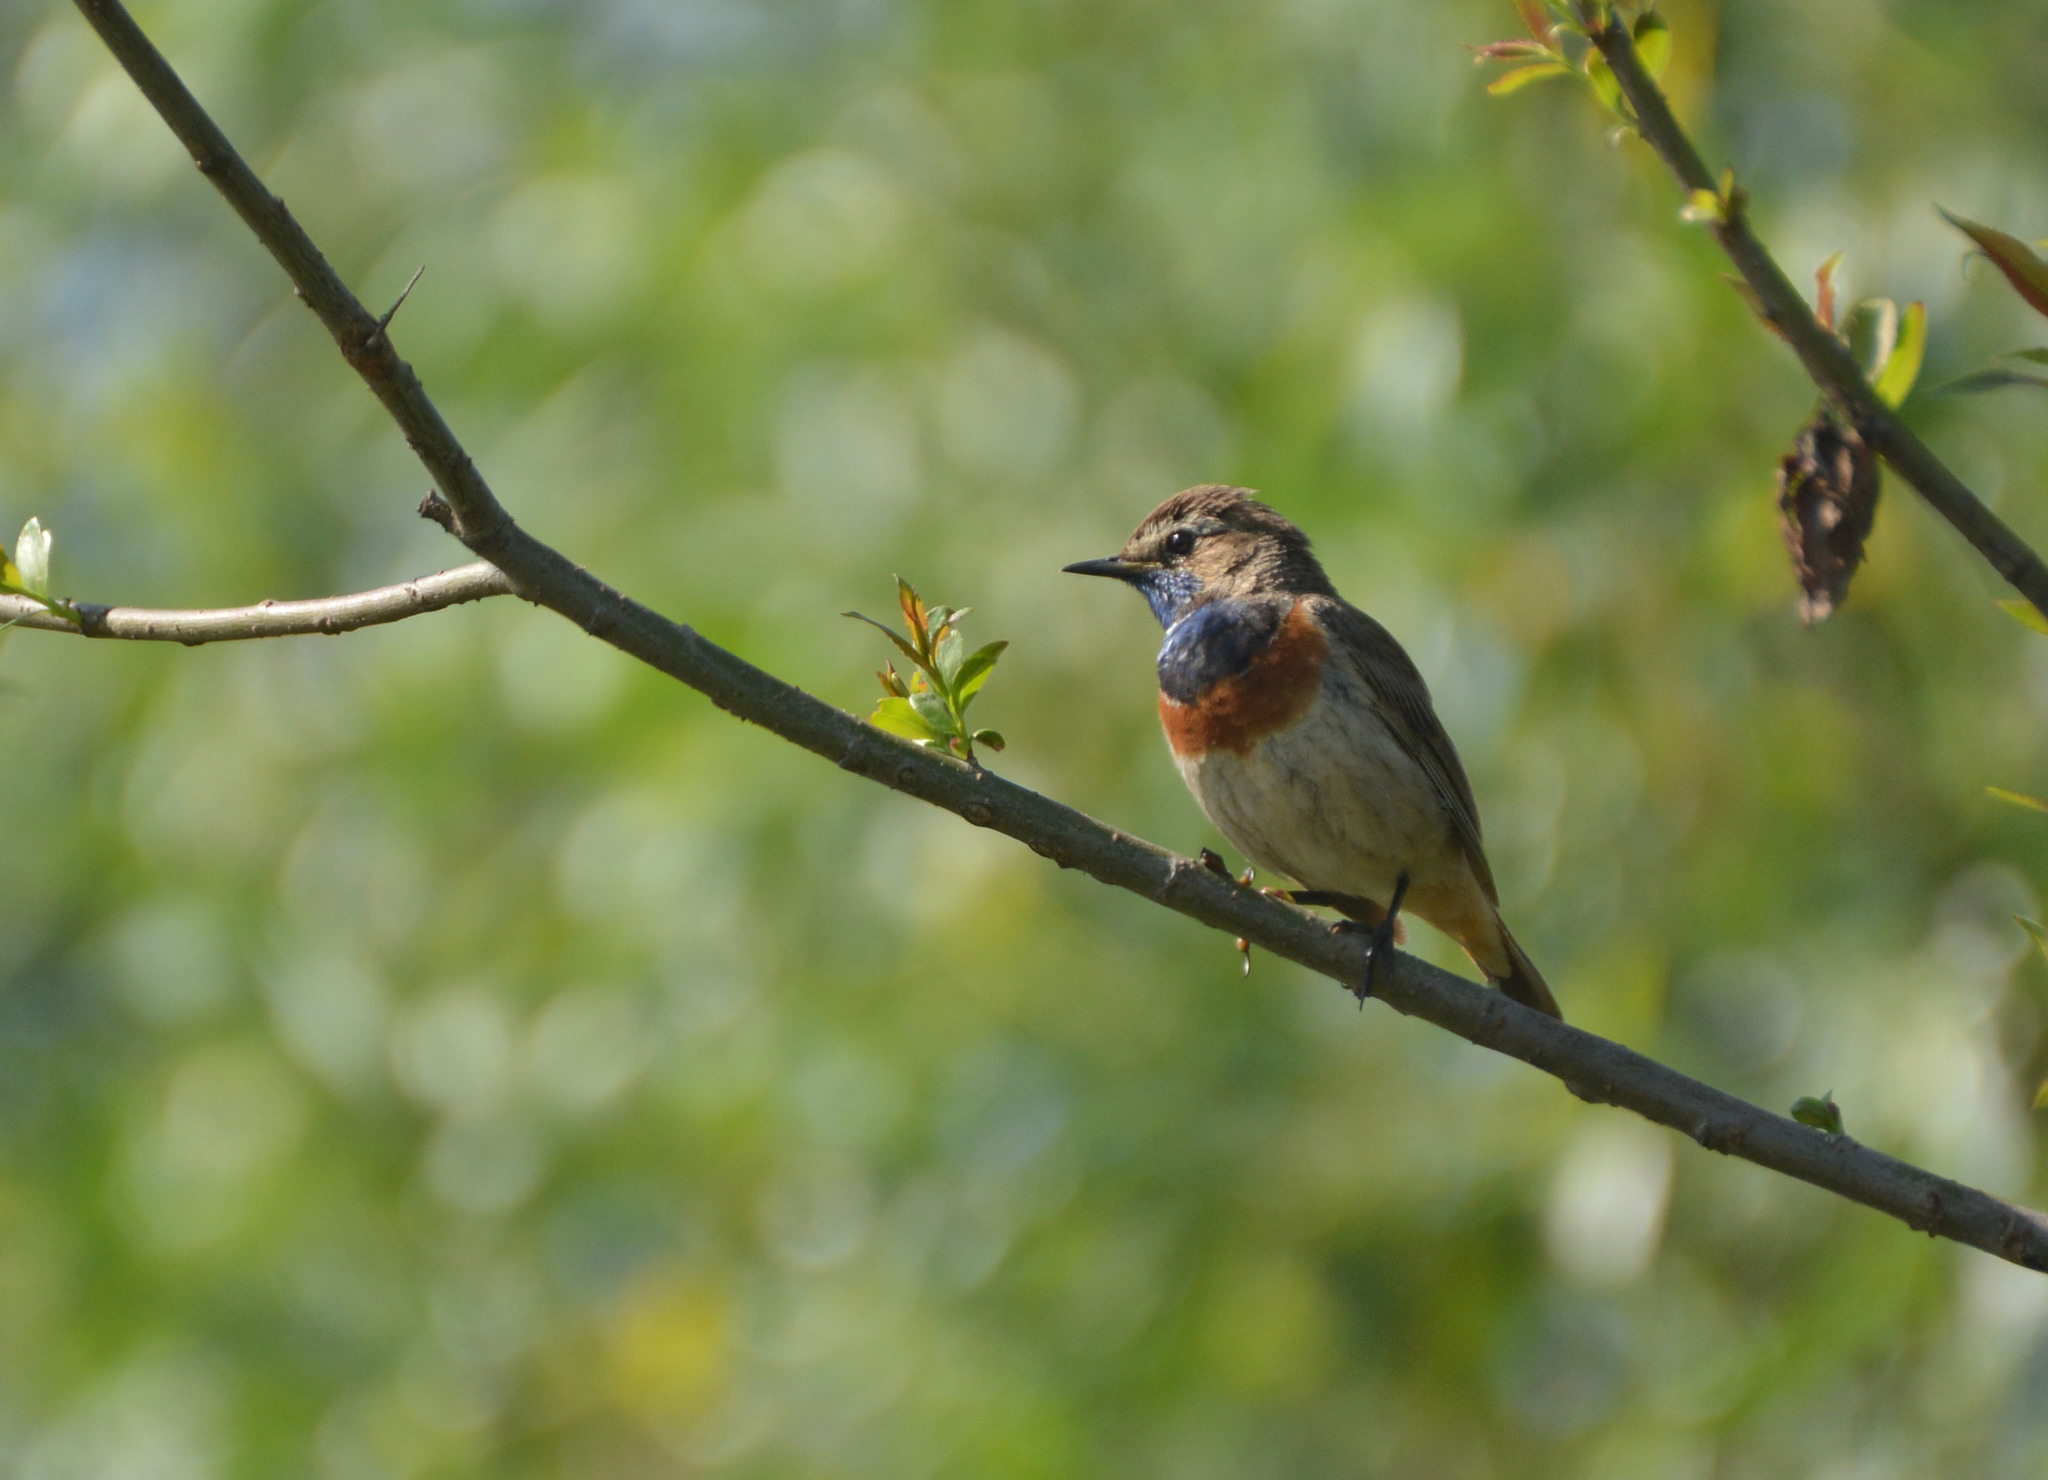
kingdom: Animalia
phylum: Chordata
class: Aves
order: Passeriformes
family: Muscicapidae
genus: Luscinia
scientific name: Luscinia svecica
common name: Bluethroat
